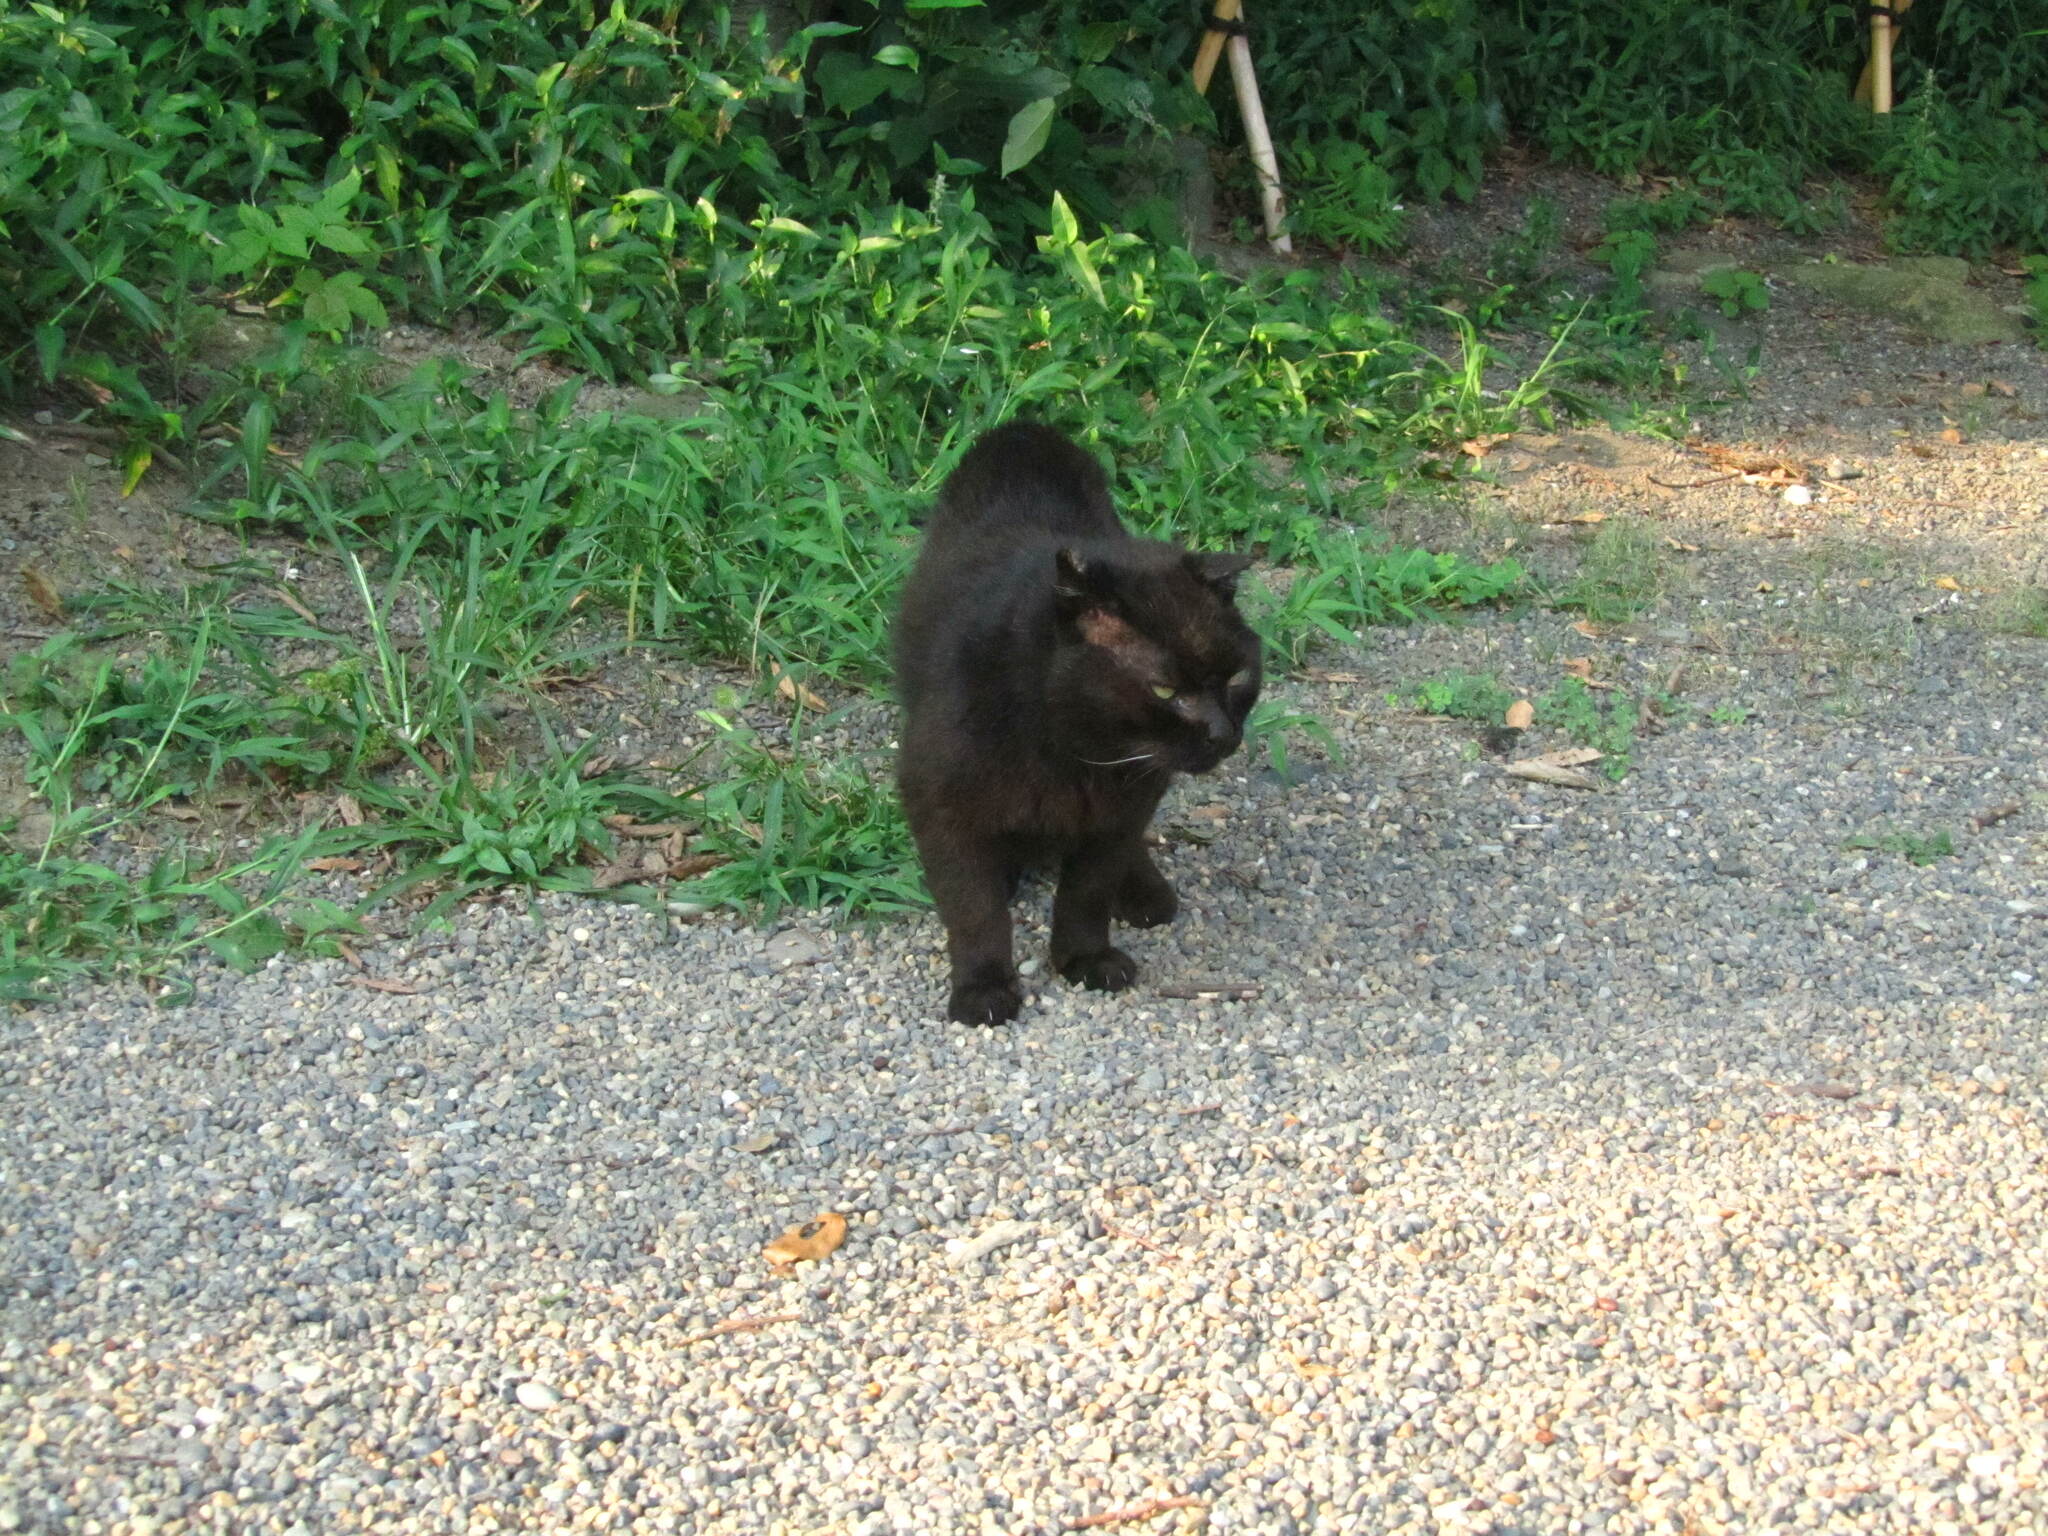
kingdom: Animalia
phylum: Chordata
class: Mammalia
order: Carnivora
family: Felidae
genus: Felis
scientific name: Felis catus
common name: Domestic cat
